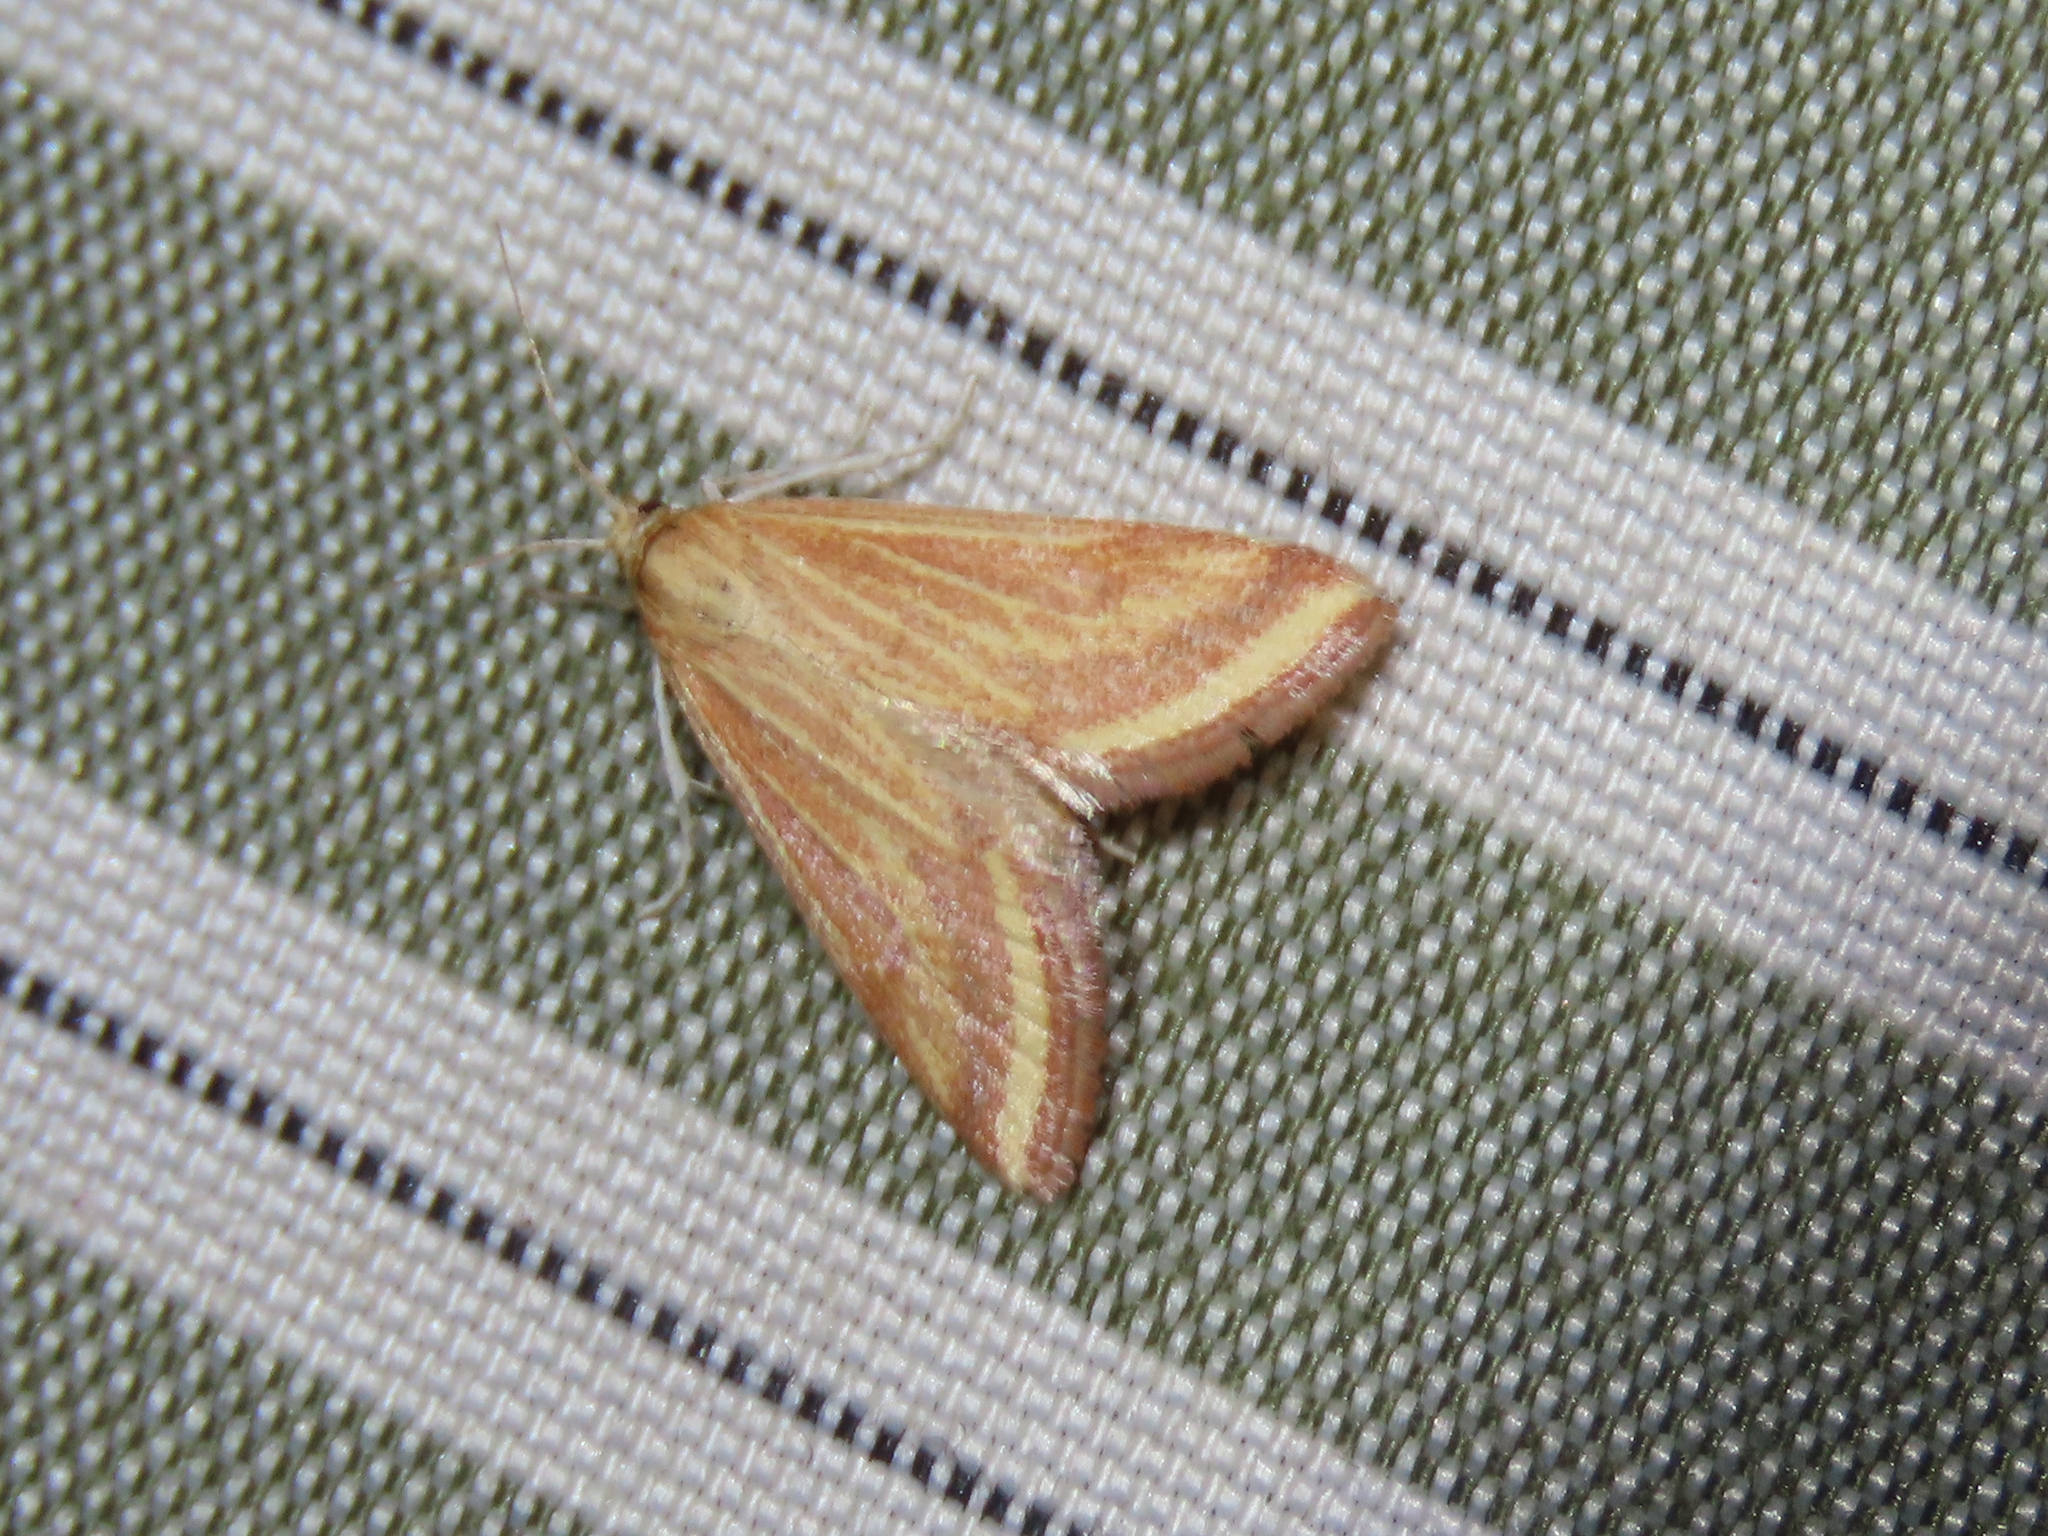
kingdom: Animalia
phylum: Arthropoda
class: Insecta
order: Lepidoptera
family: Crambidae
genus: Microtheoris
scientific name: Microtheoris ophionalis
